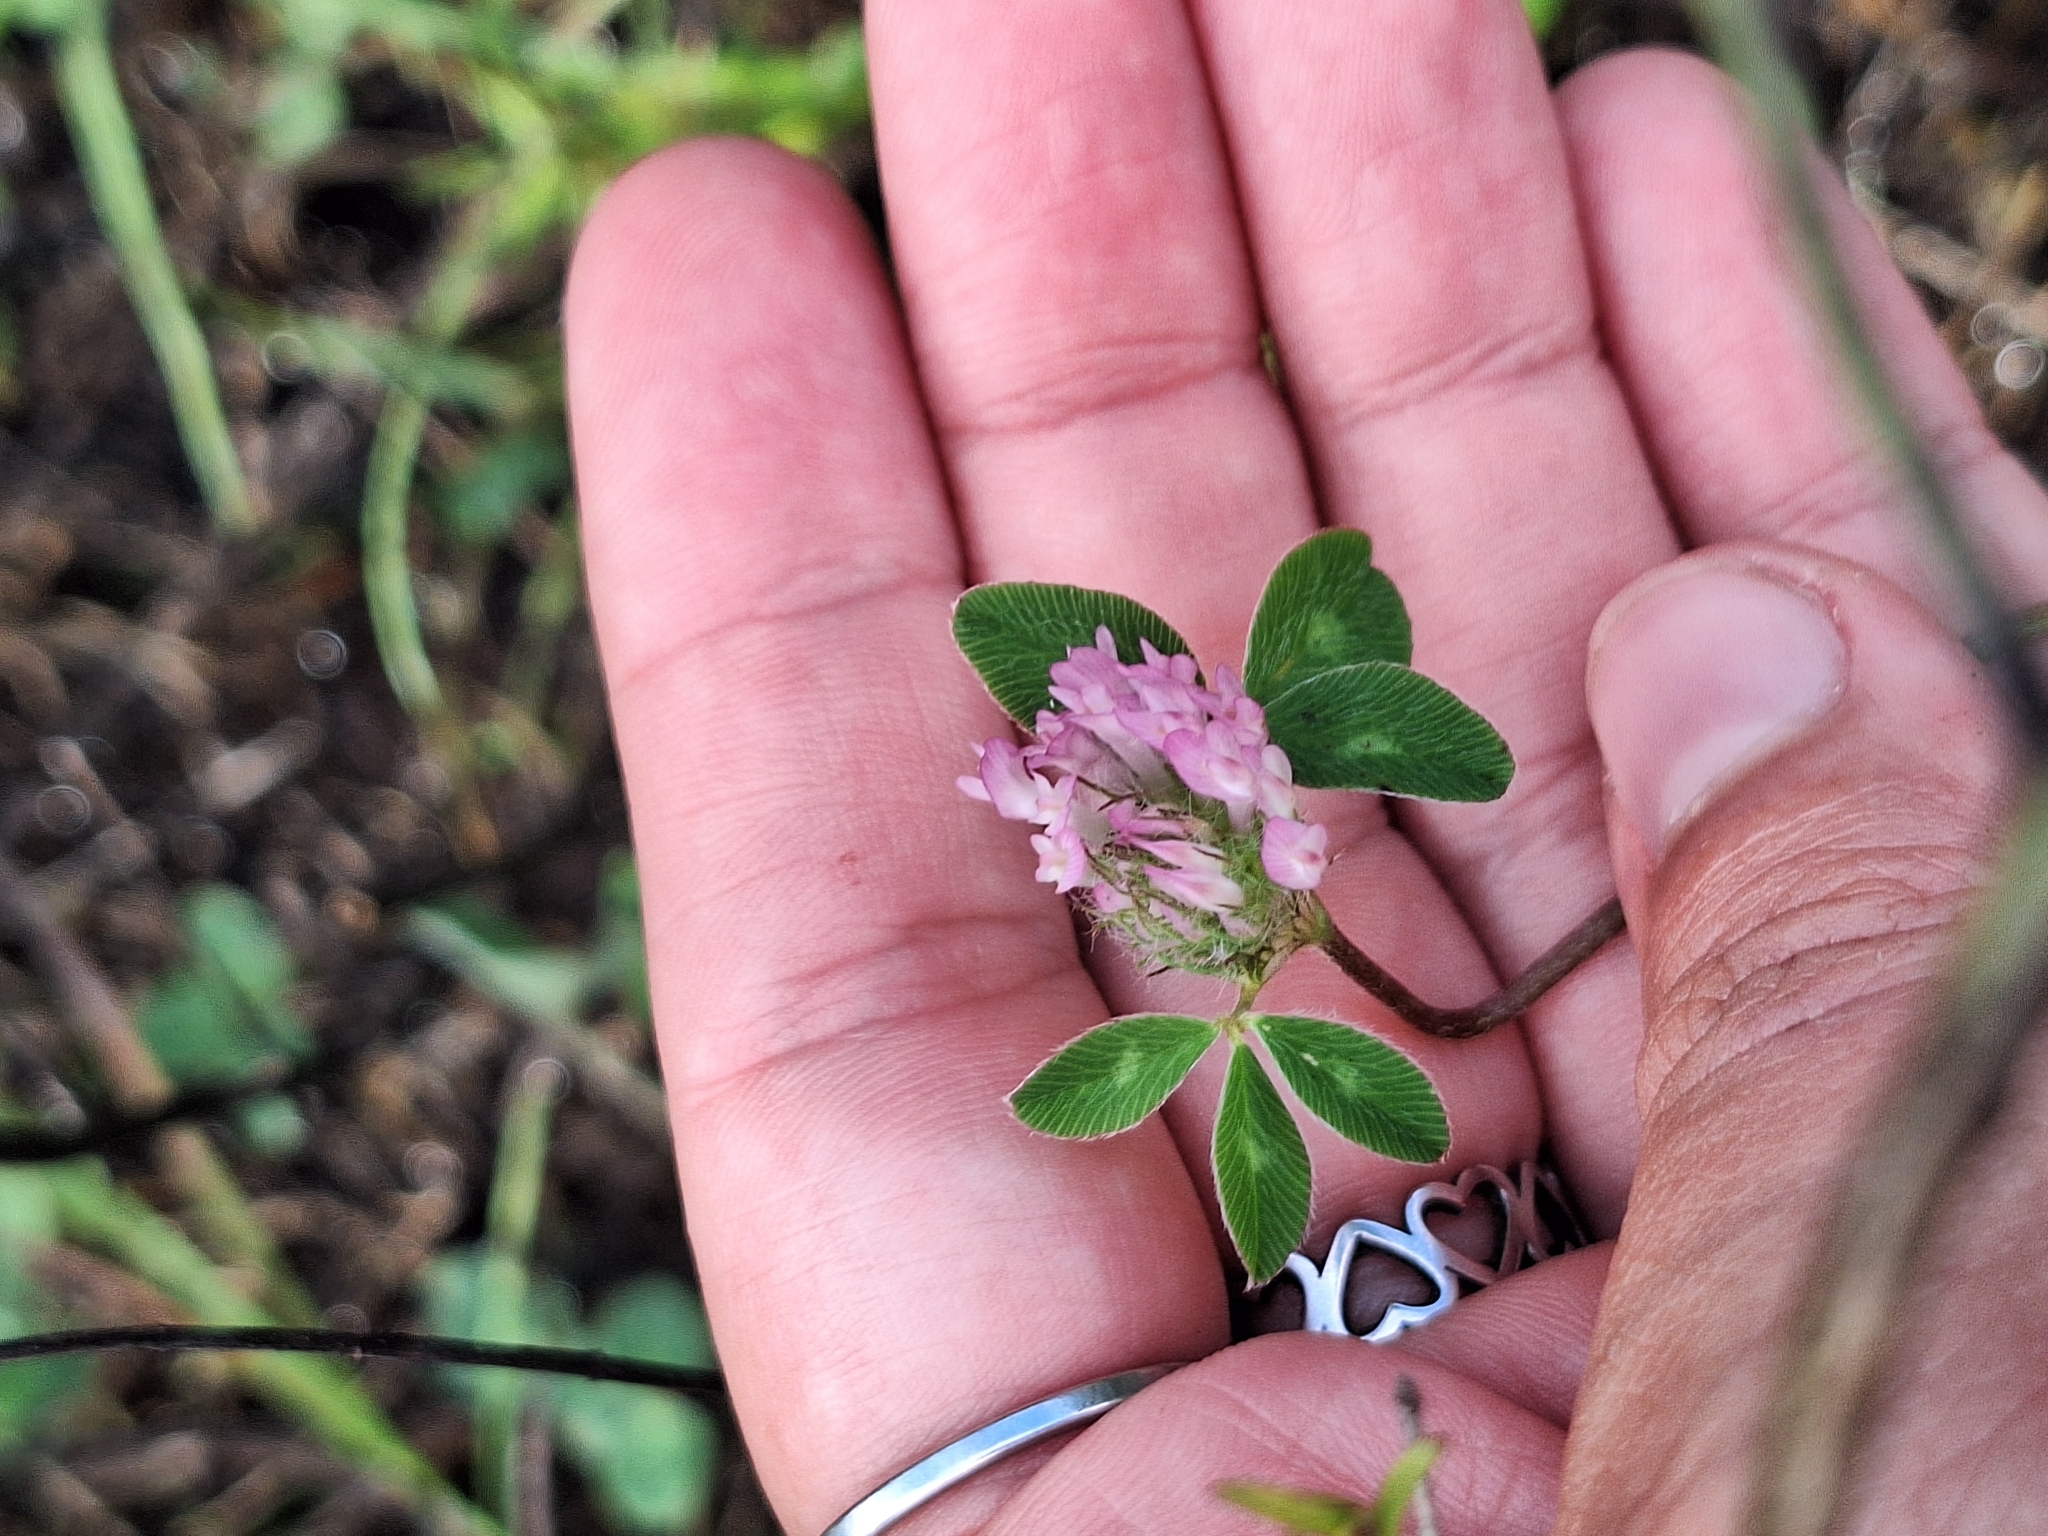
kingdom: Plantae
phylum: Tracheophyta
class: Magnoliopsida
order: Fabales
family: Fabaceae
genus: Trifolium
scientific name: Trifolium pratense
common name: Red clover
